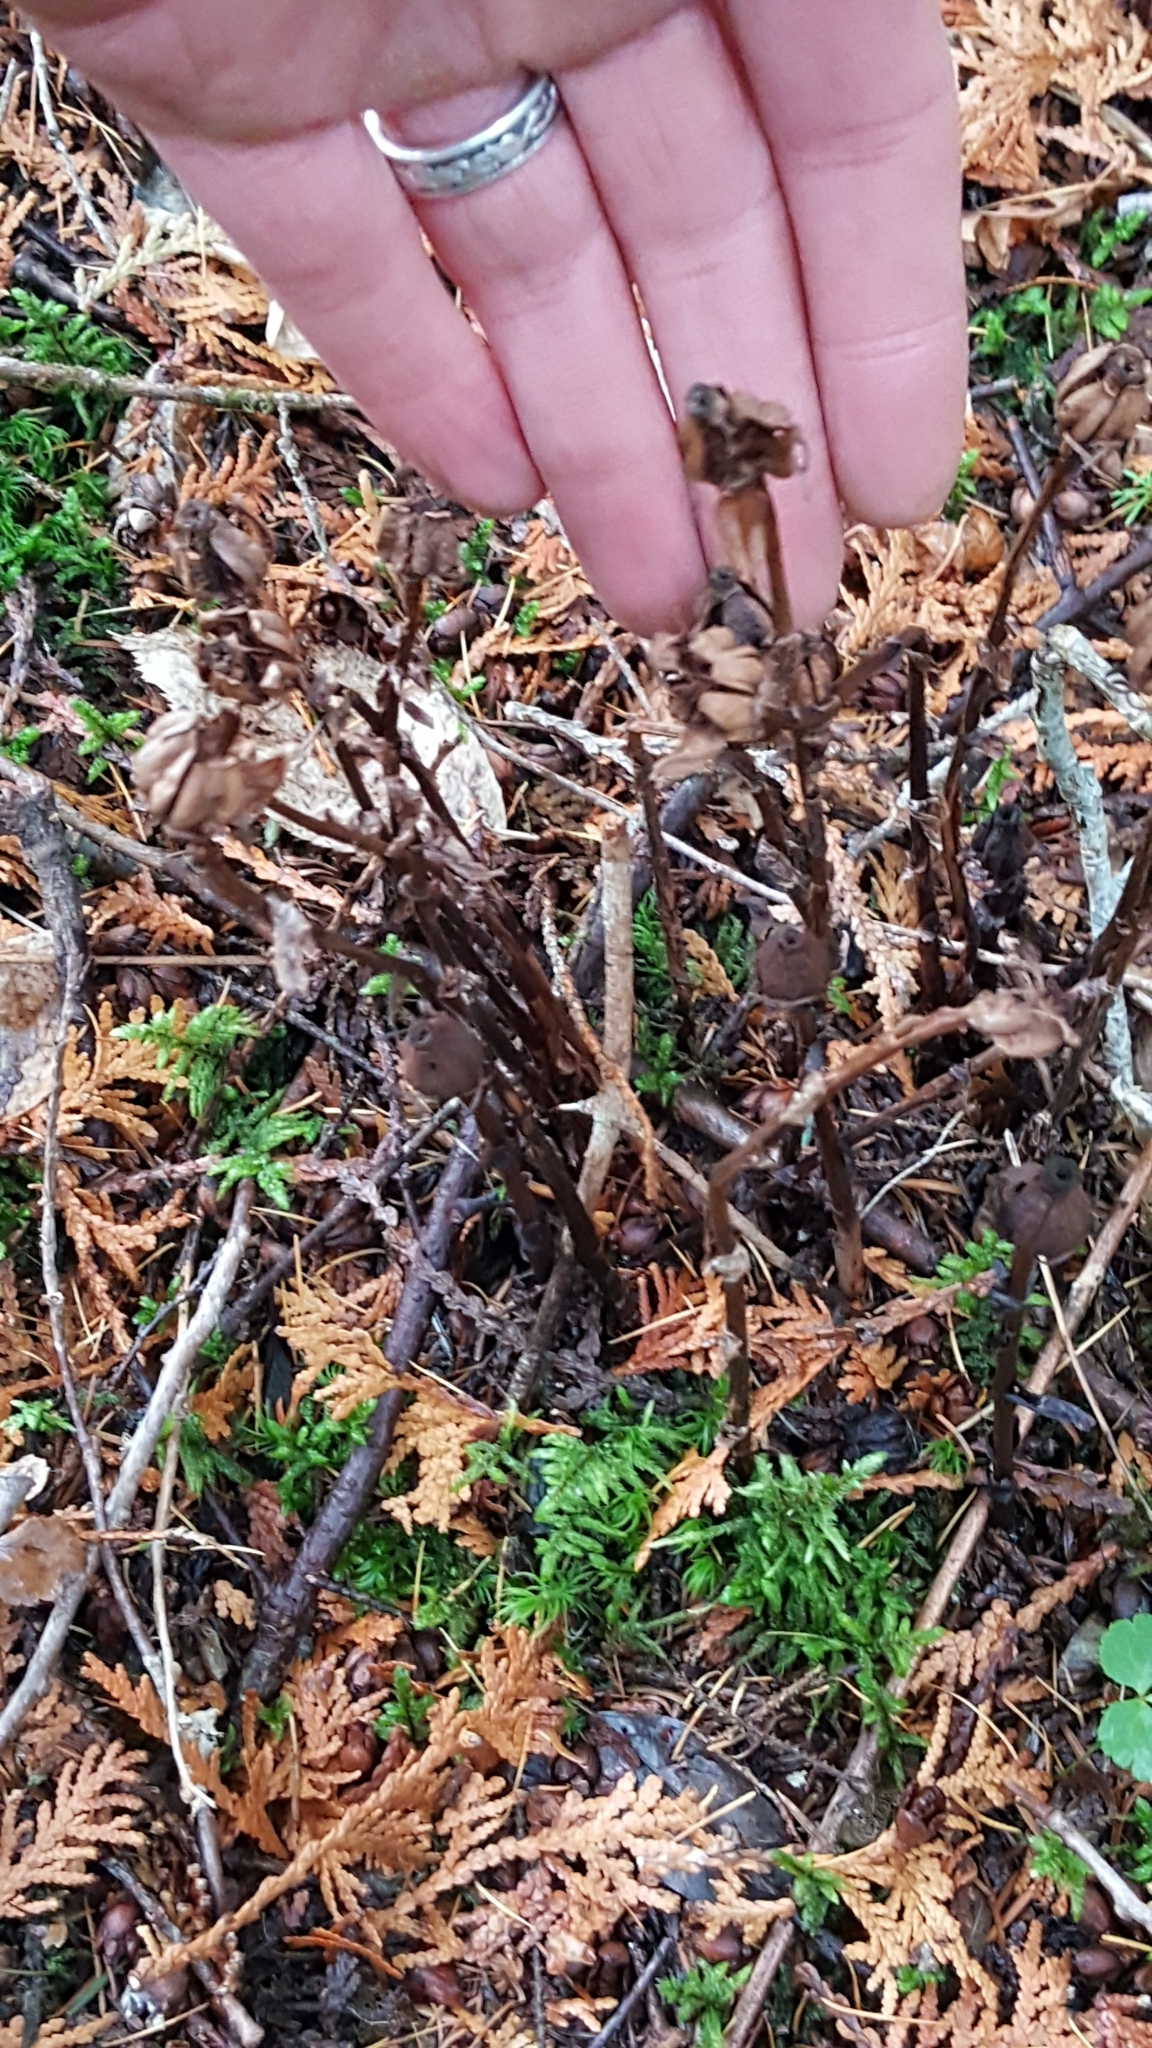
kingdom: Plantae
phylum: Tracheophyta
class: Magnoliopsida
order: Ericales
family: Ericaceae
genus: Monotropa
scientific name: Monotropa uniflora
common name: Convulsion root
